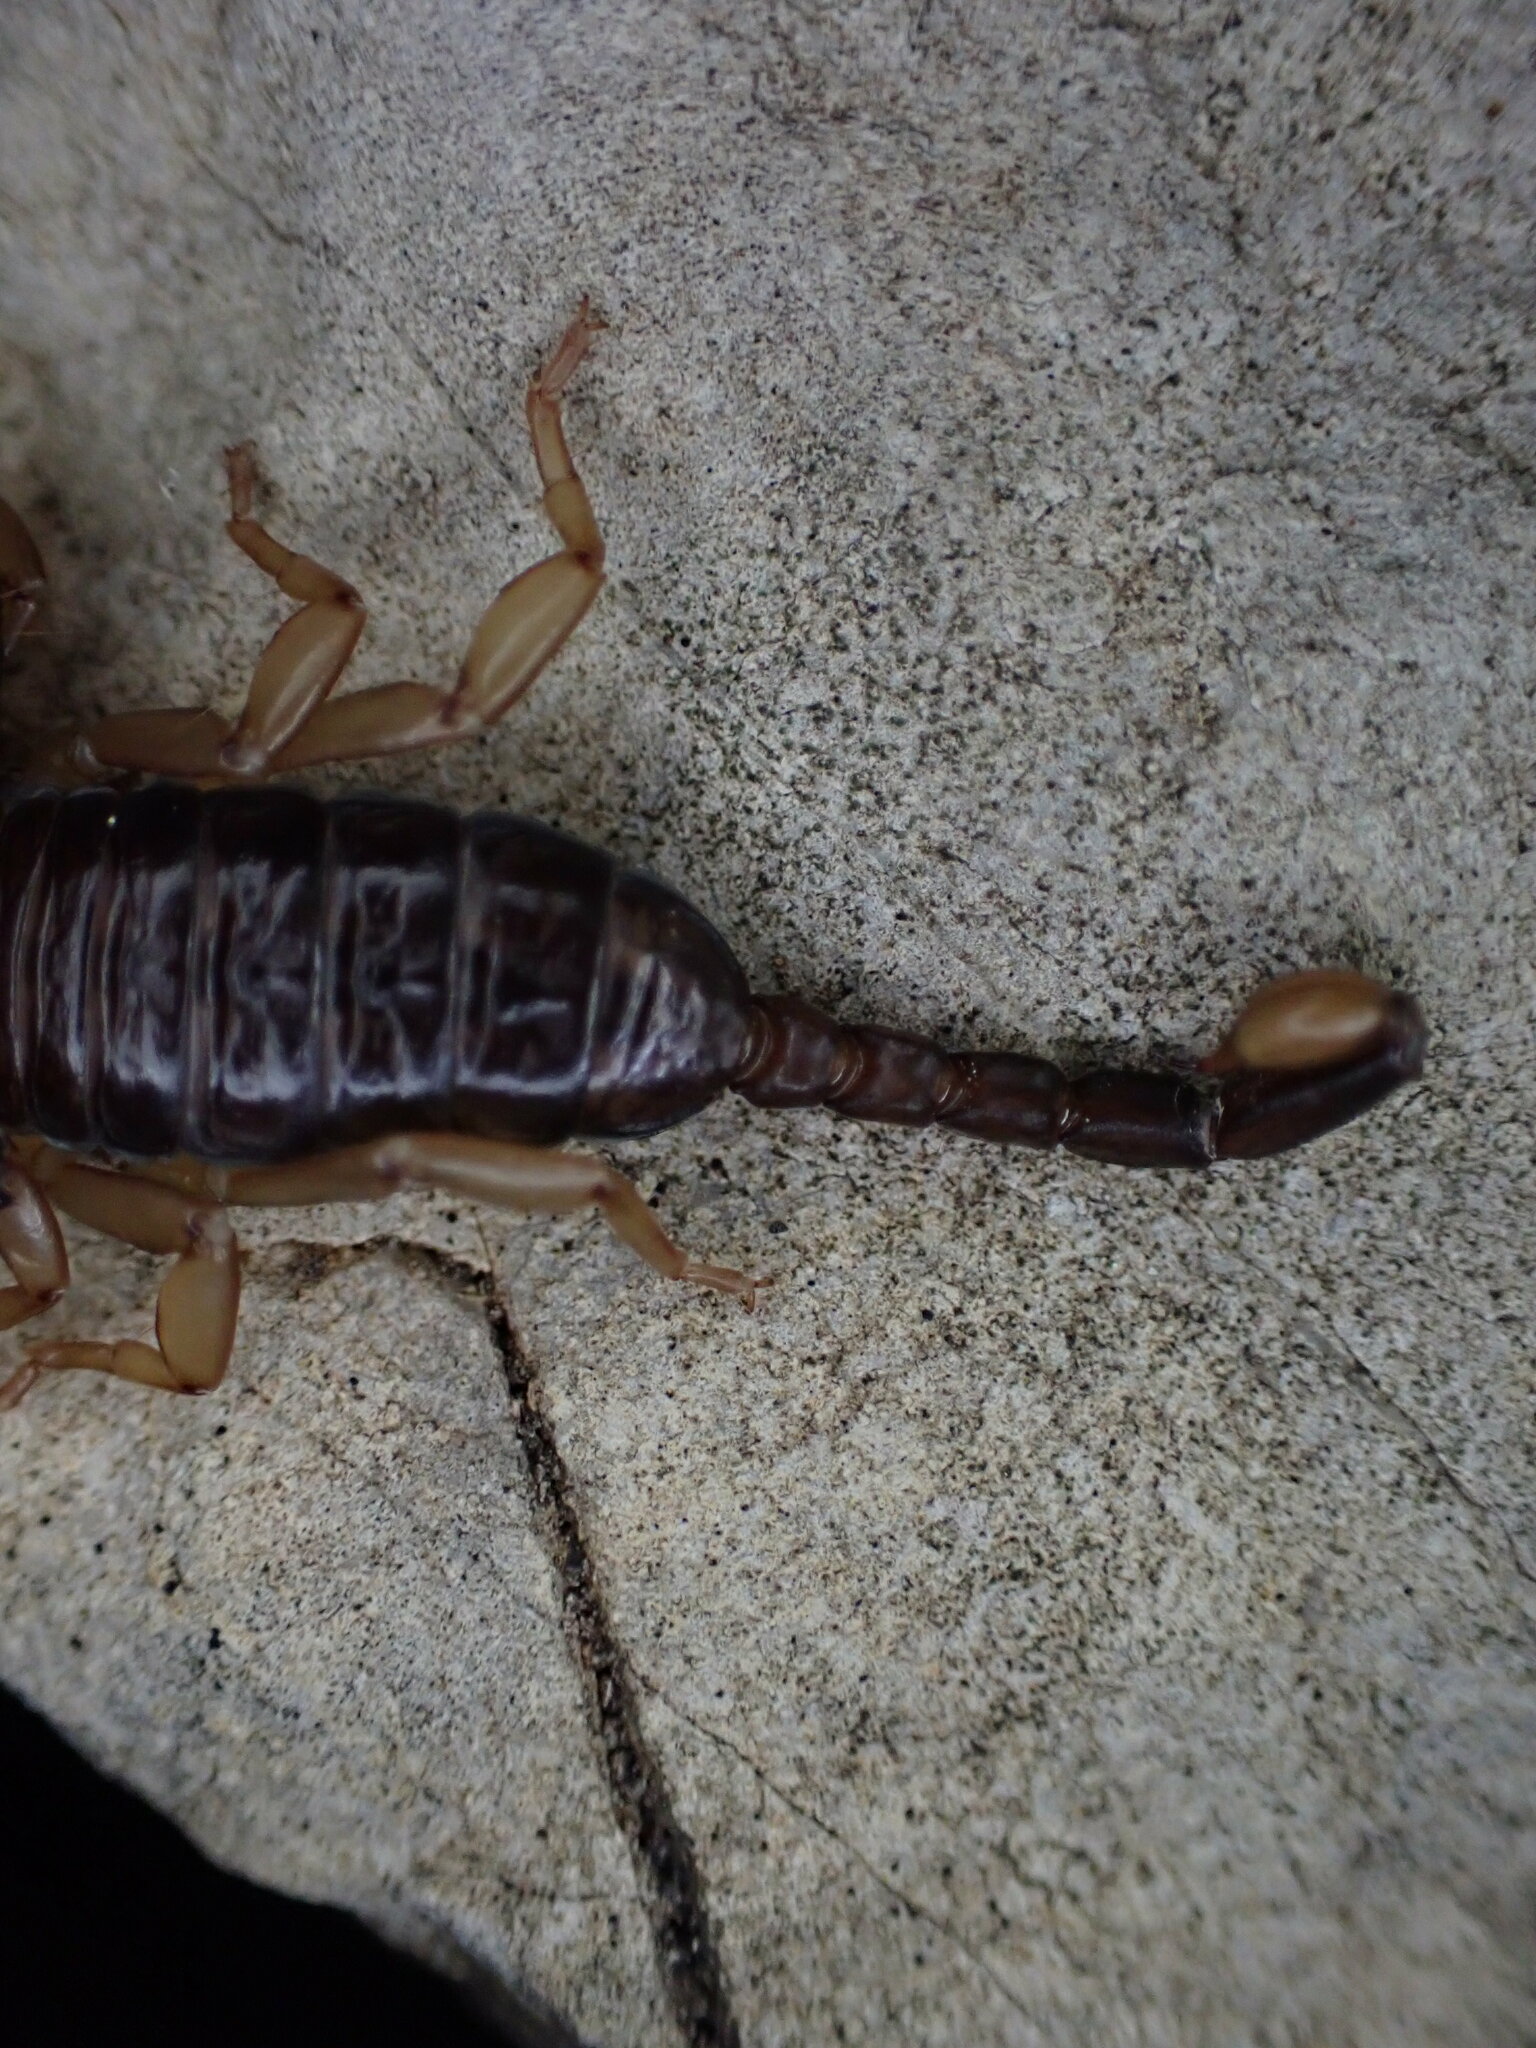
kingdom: Animalia
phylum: Arthropoda
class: Arachnida
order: Scorpiones
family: Euscorpiidae
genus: Euscorpius
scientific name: Euscorpius
